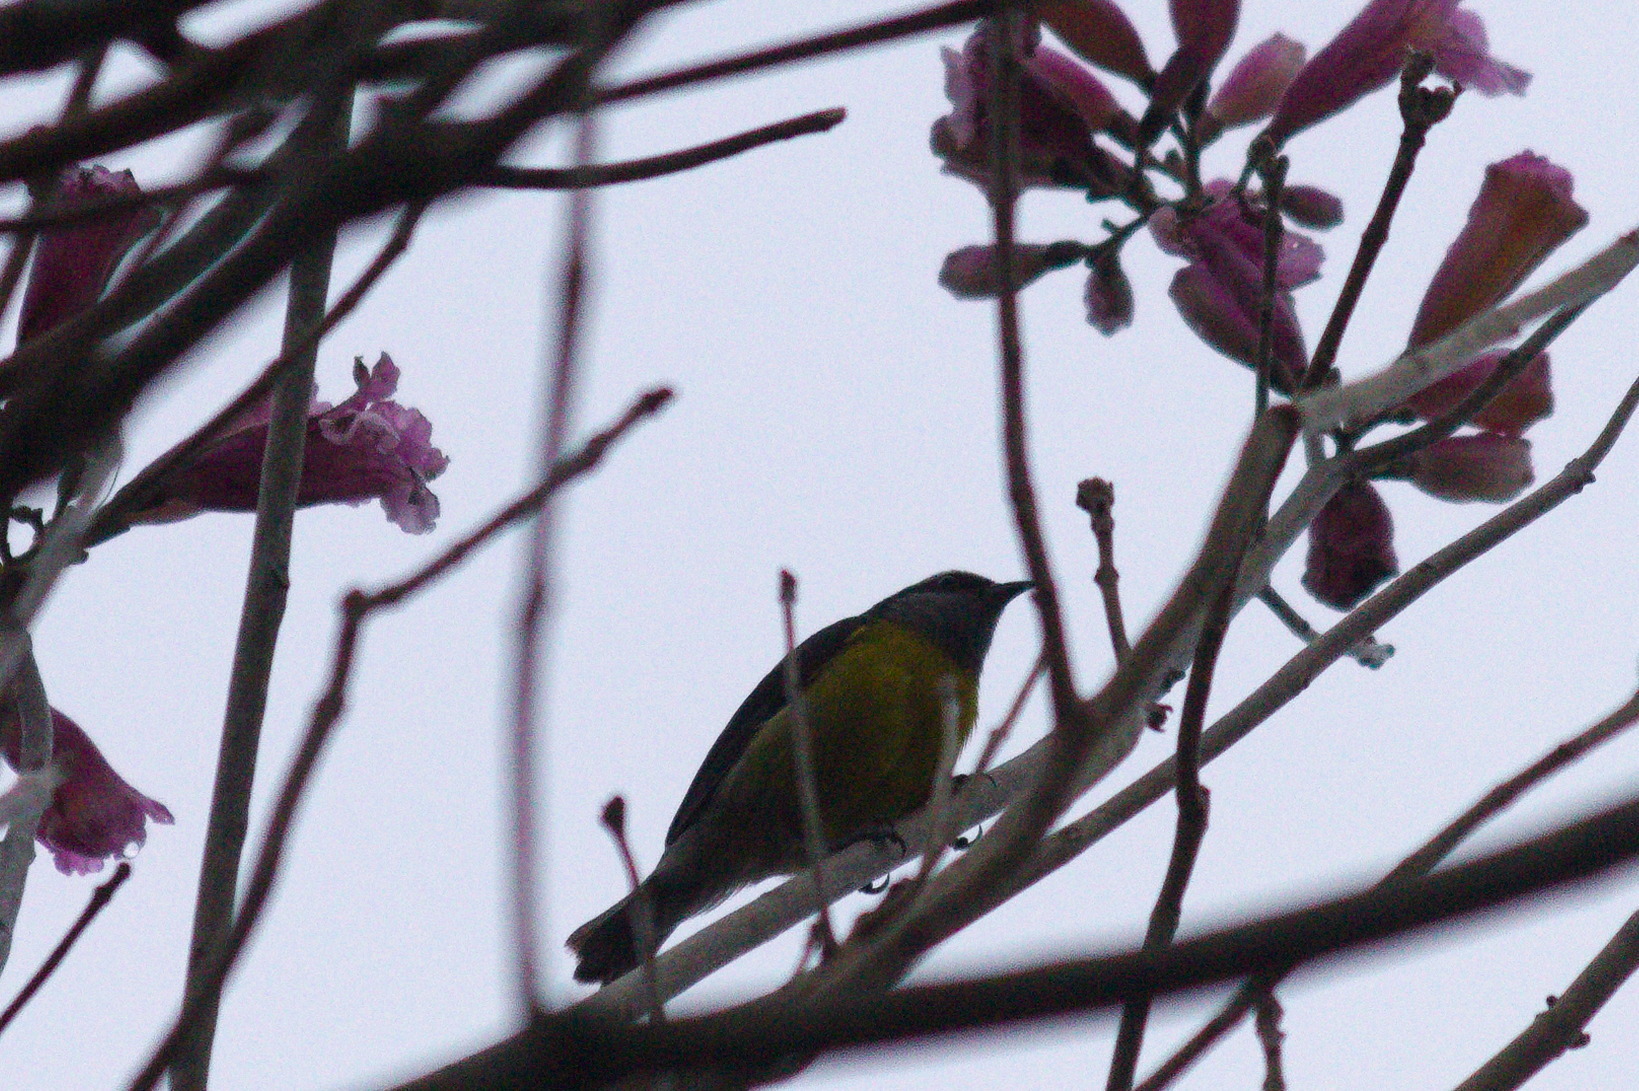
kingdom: Animalia
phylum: Chordata
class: Aves
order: Passeriformes
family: Thraupidae
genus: Coereba
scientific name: Coereba flaveola
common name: Bananaquit
